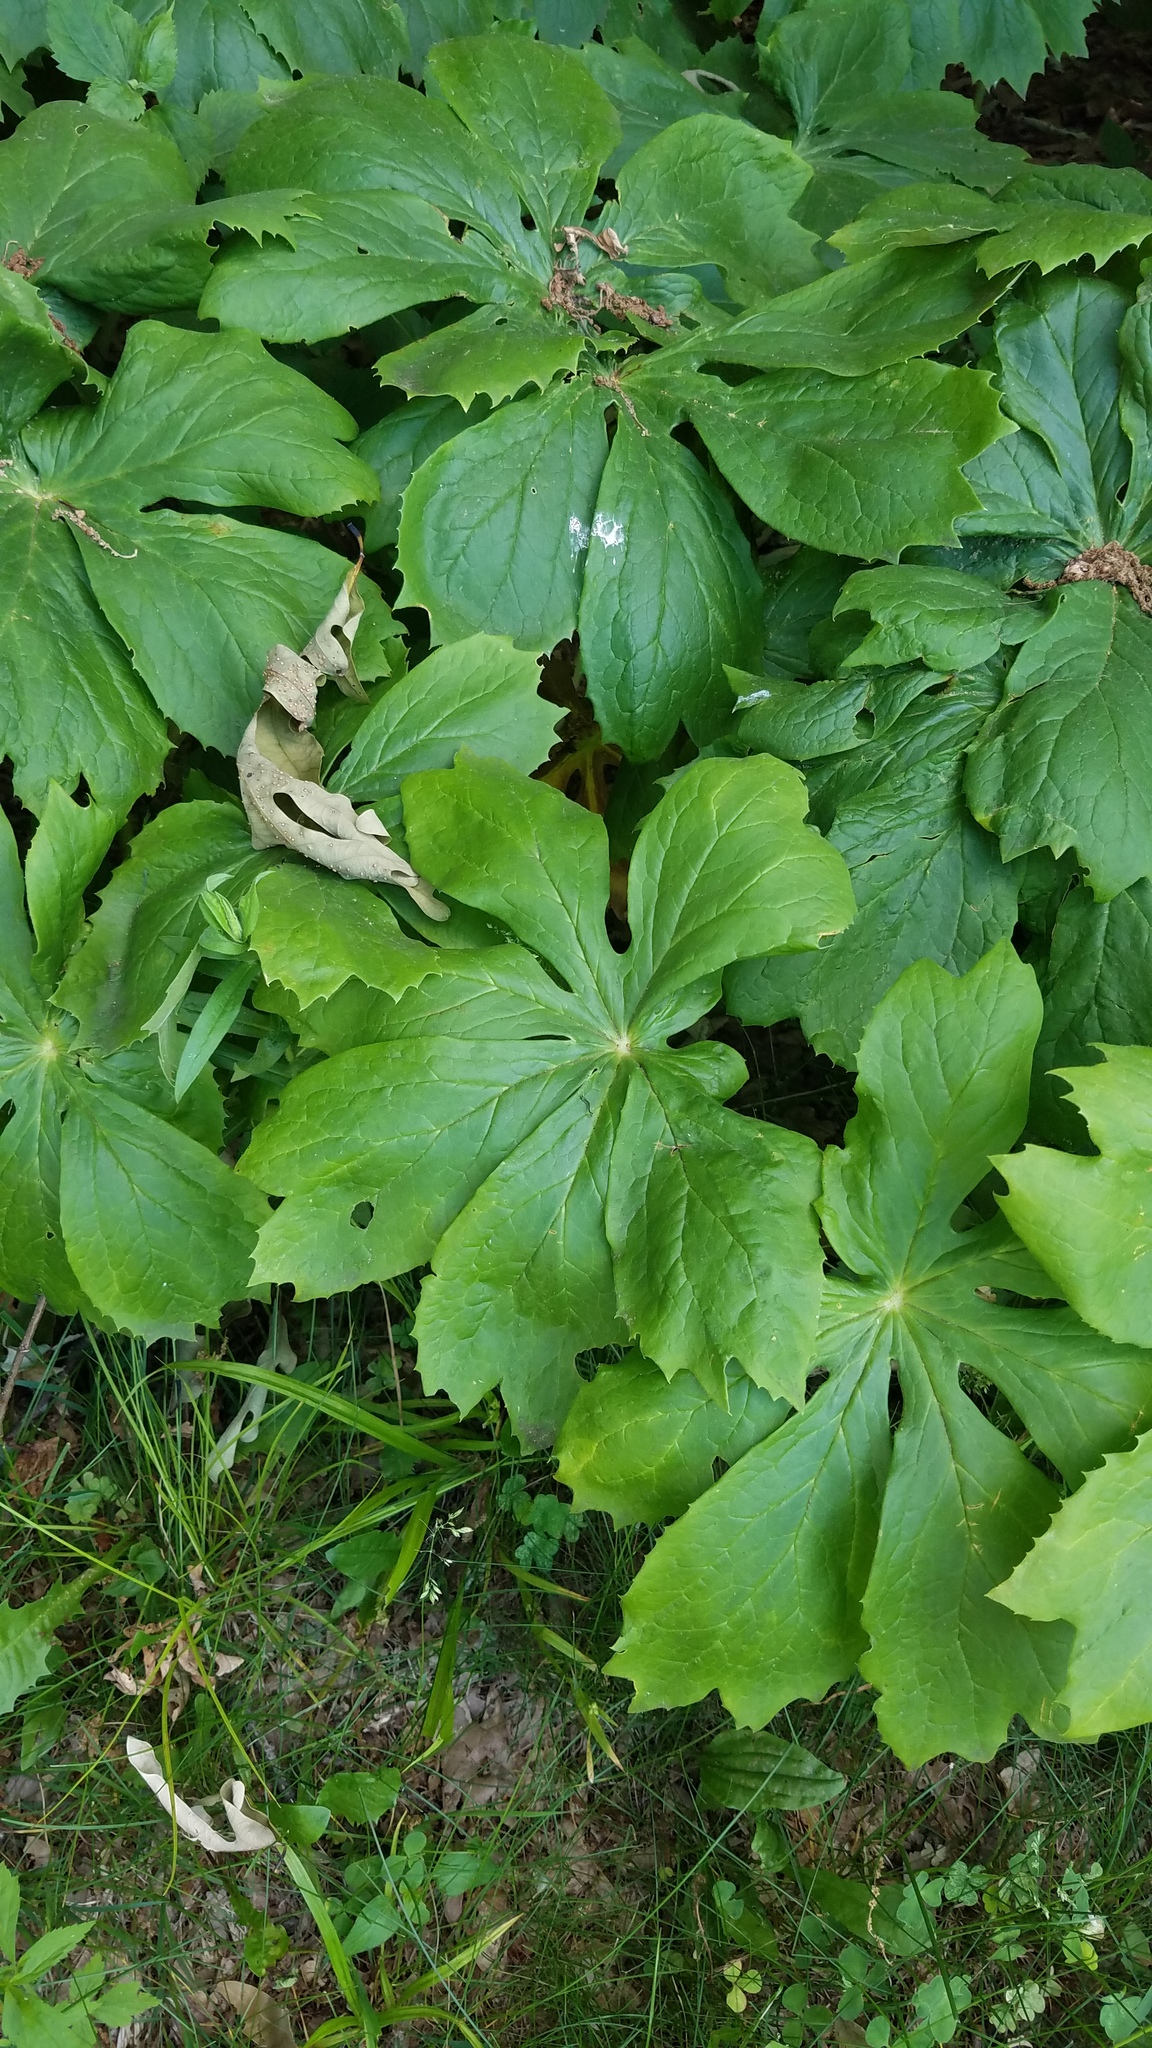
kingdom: Plantae
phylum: Tracheophyta
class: Magnoliopsida
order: Ranunculales
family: Berberidaceae
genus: Podophyllum
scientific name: Podophyllum peltatum
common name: Wild mandrake
